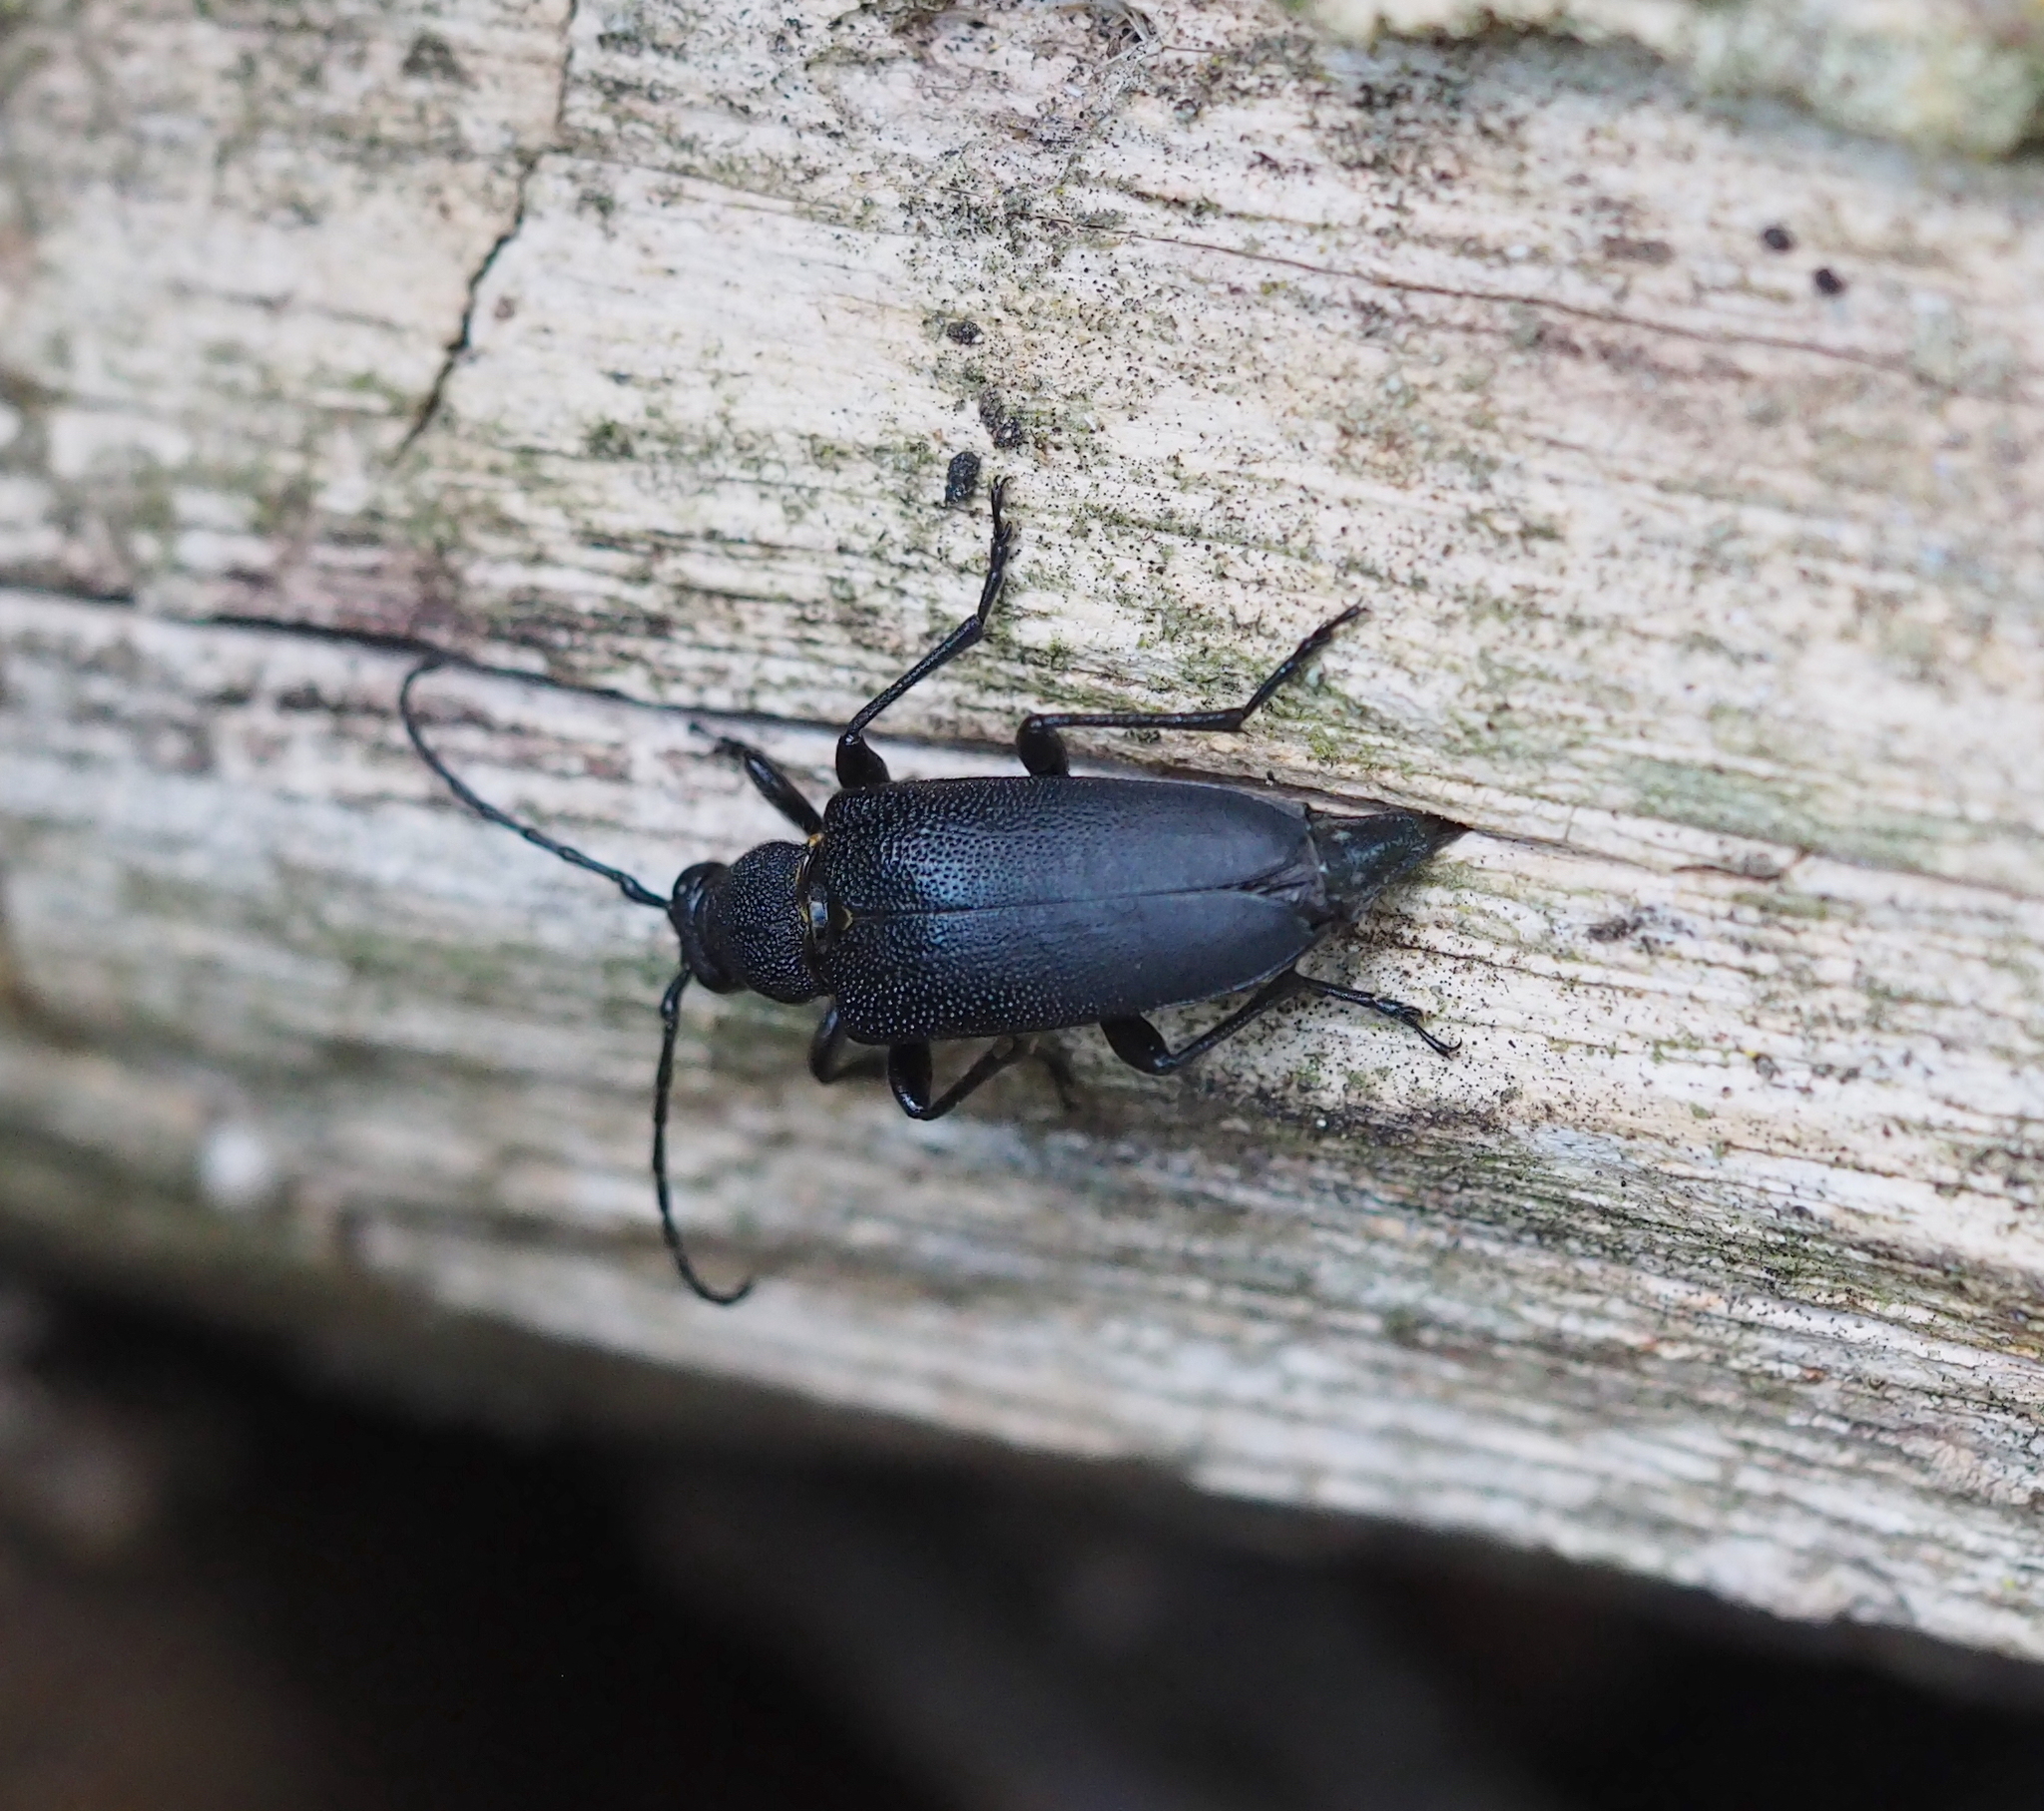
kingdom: Animalia
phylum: Arthropoda
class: Insecta
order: Coleoptera
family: Cerambycidae
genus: Stictoleptura
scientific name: Stictoleptura scutellata
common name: Large black longhorn beetle
